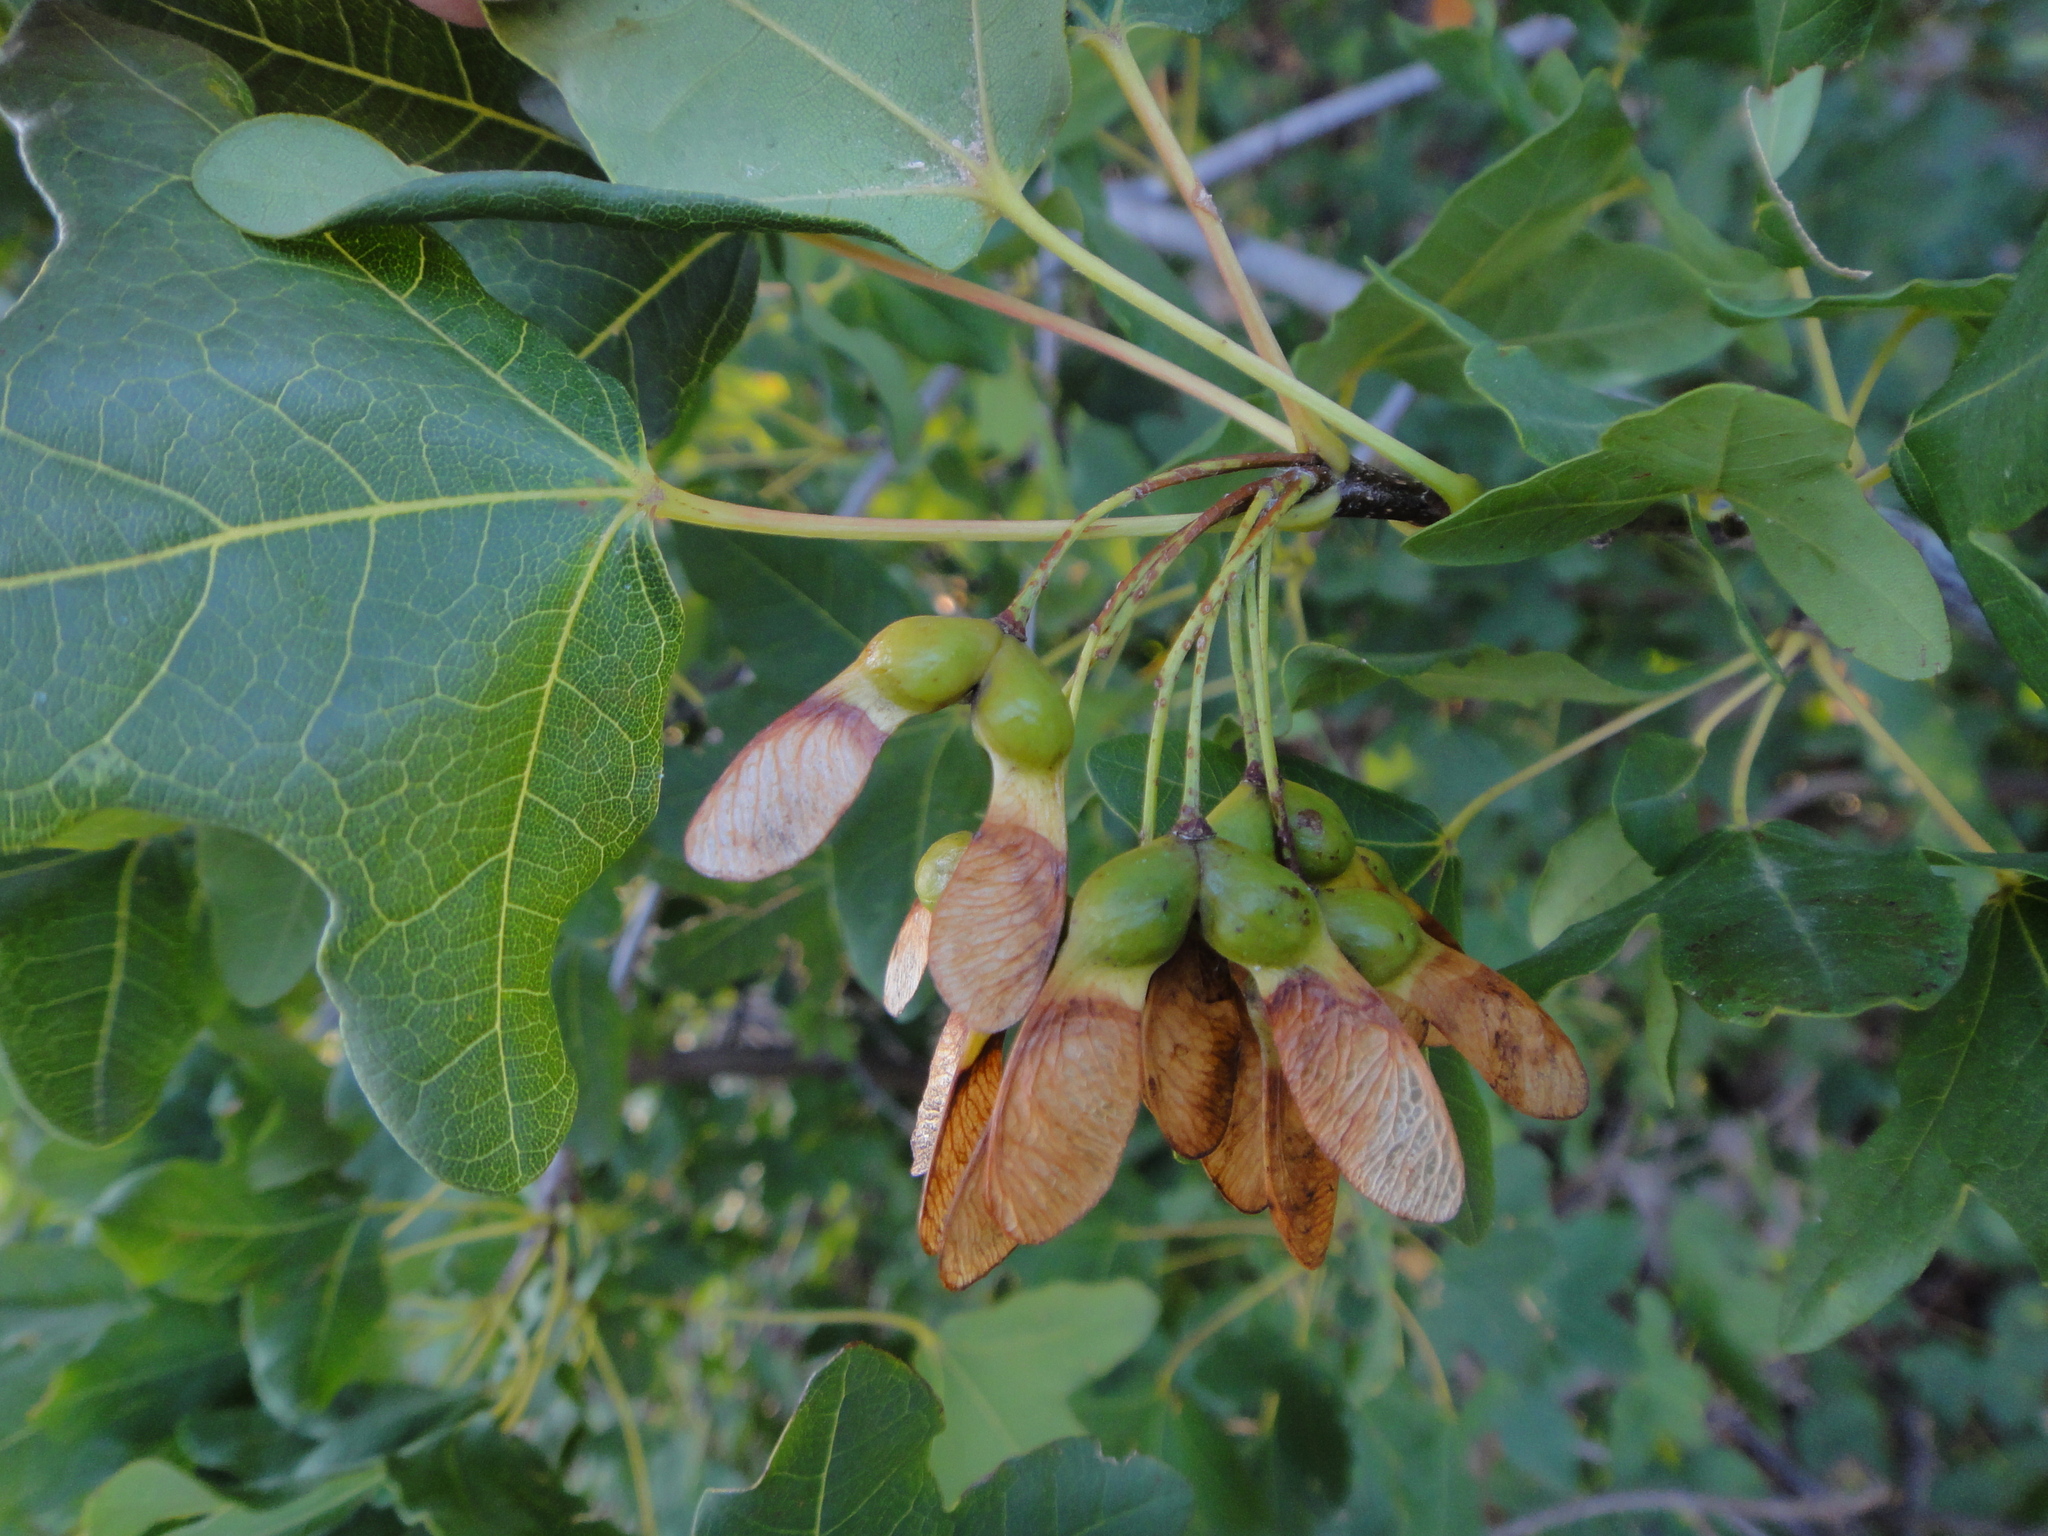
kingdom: Plantae
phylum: Tracheophyta
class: Magnoliopsida
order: Sapindales
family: Sapindaceae
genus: Acer
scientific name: Acer monspessulanum
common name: Montpellier maple
